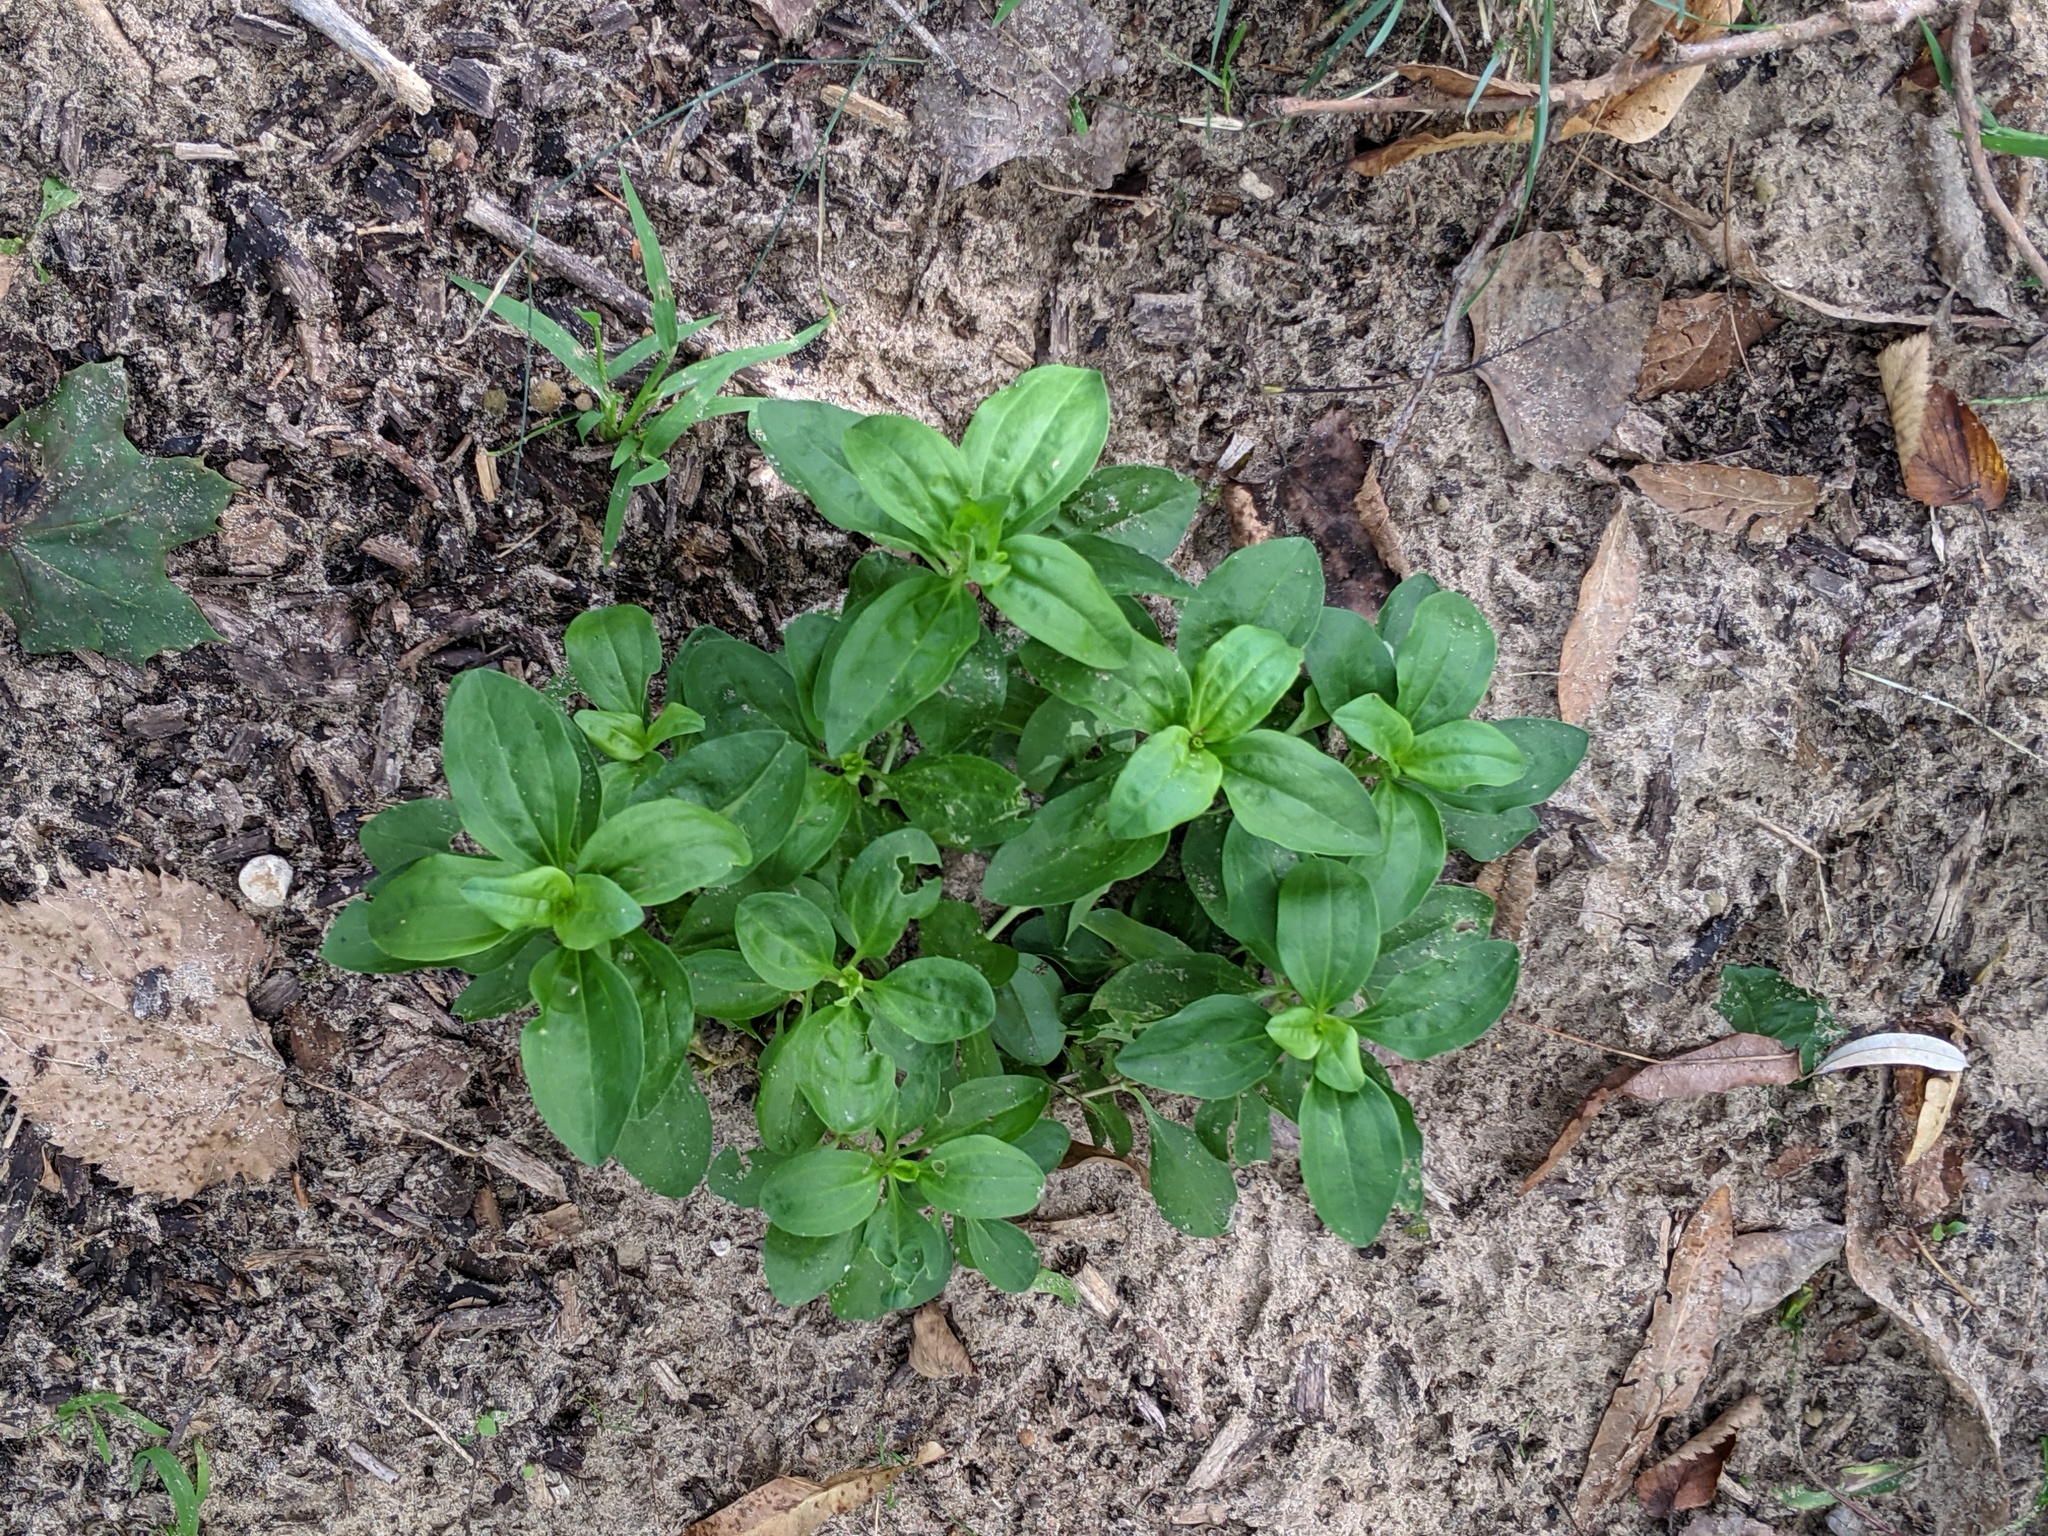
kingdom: Plantae
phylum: Tracheophyta
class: Magnoliopsida
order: Caryophyllales
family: Caryophyllaceae
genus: Saponaria
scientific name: Saponaria officinalis
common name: Soapwort
